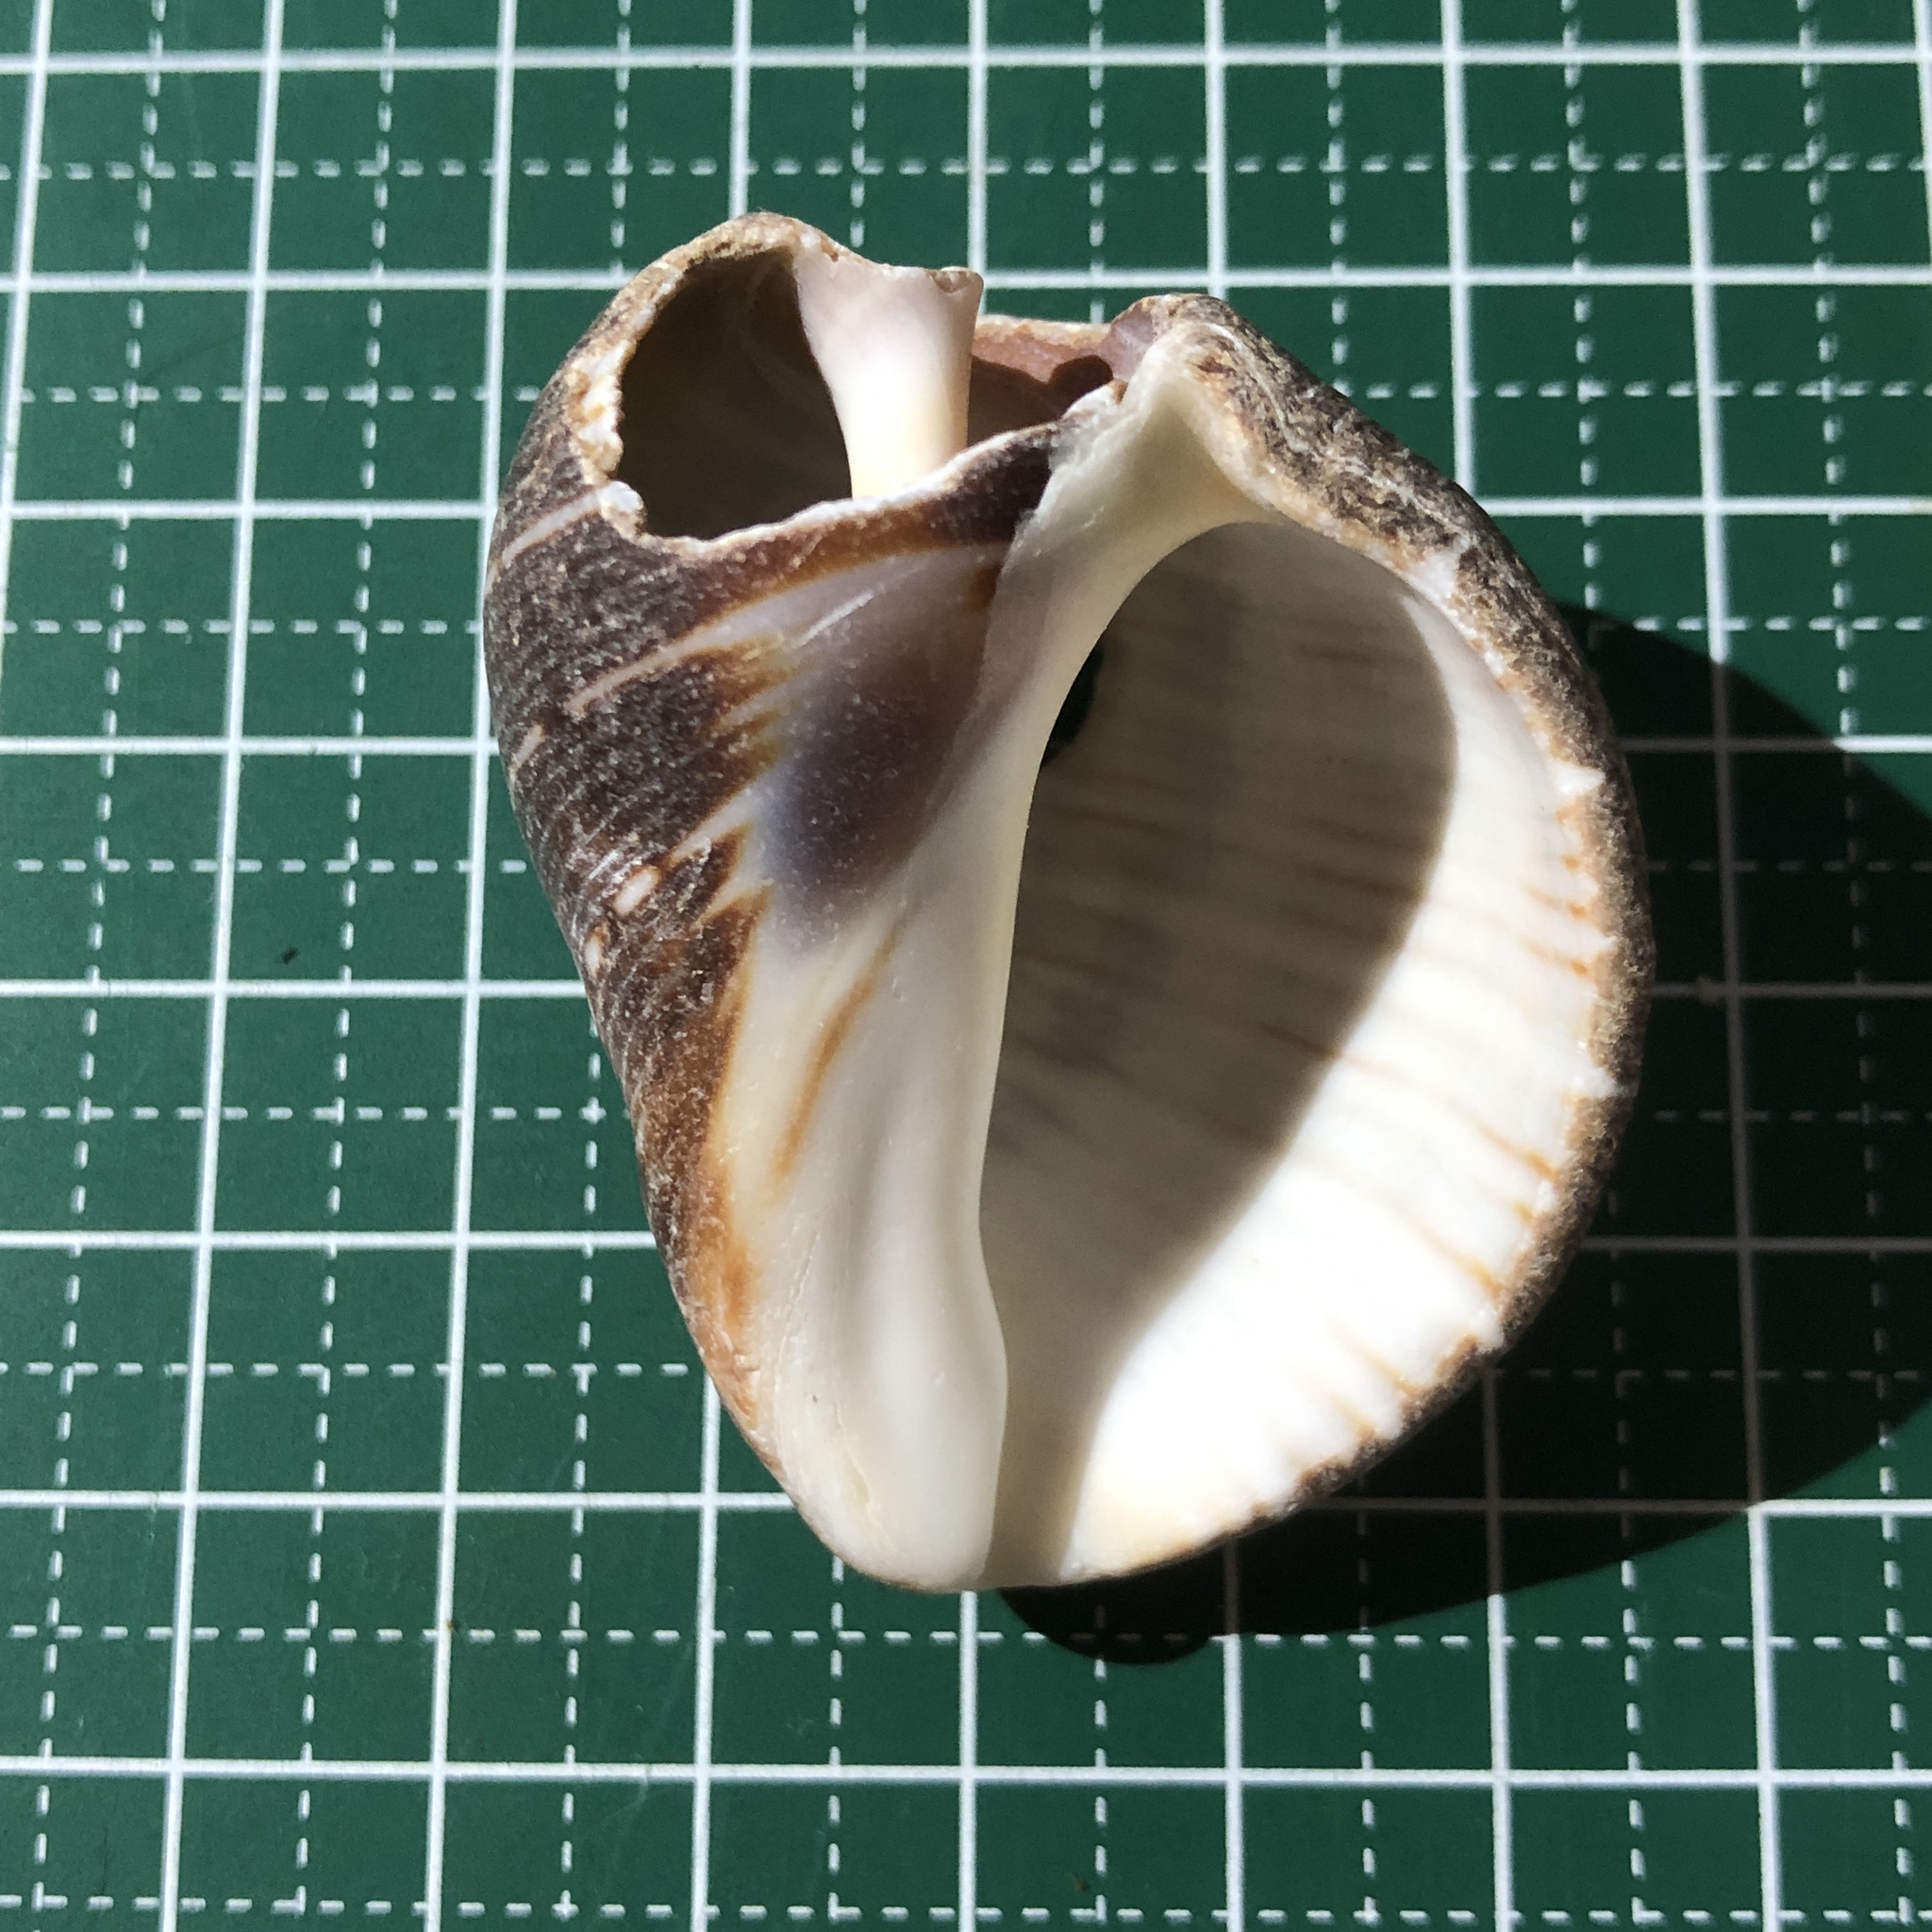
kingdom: Animalia
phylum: Mollusca
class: Gastropoda
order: Neogastropoda
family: Fasciolariidae
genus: Latirolagena
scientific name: Latirolagena smaragdulus
